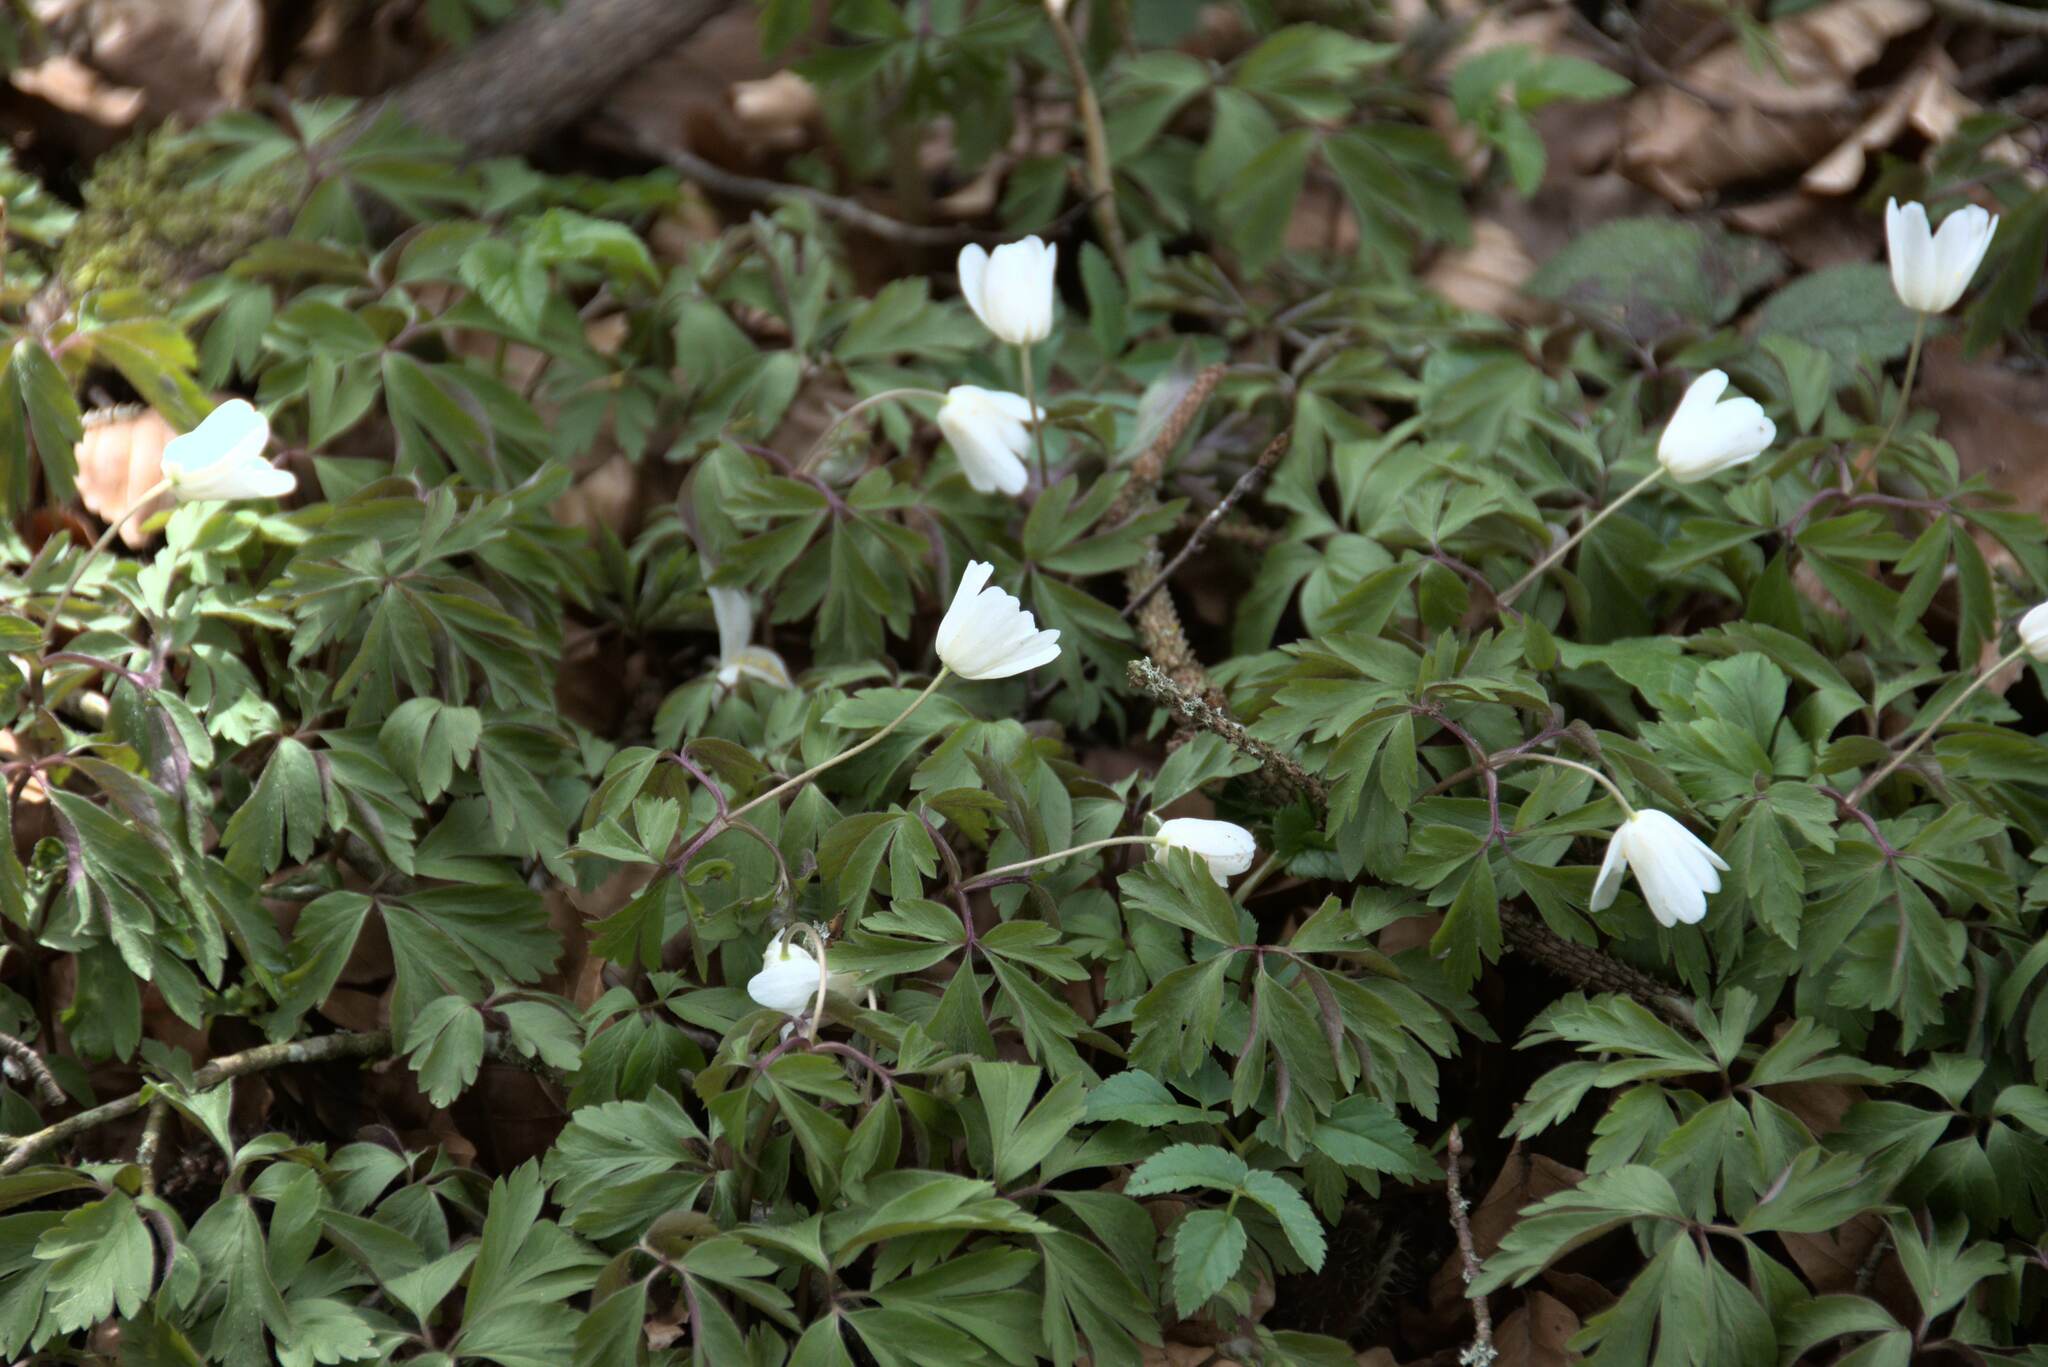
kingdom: Plantae
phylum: Tracheophyta
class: Magnoliopsida
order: Ranunculales
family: Ranunculaceae
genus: Anemone
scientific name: Anemone nemorosa
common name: Wood anemone
